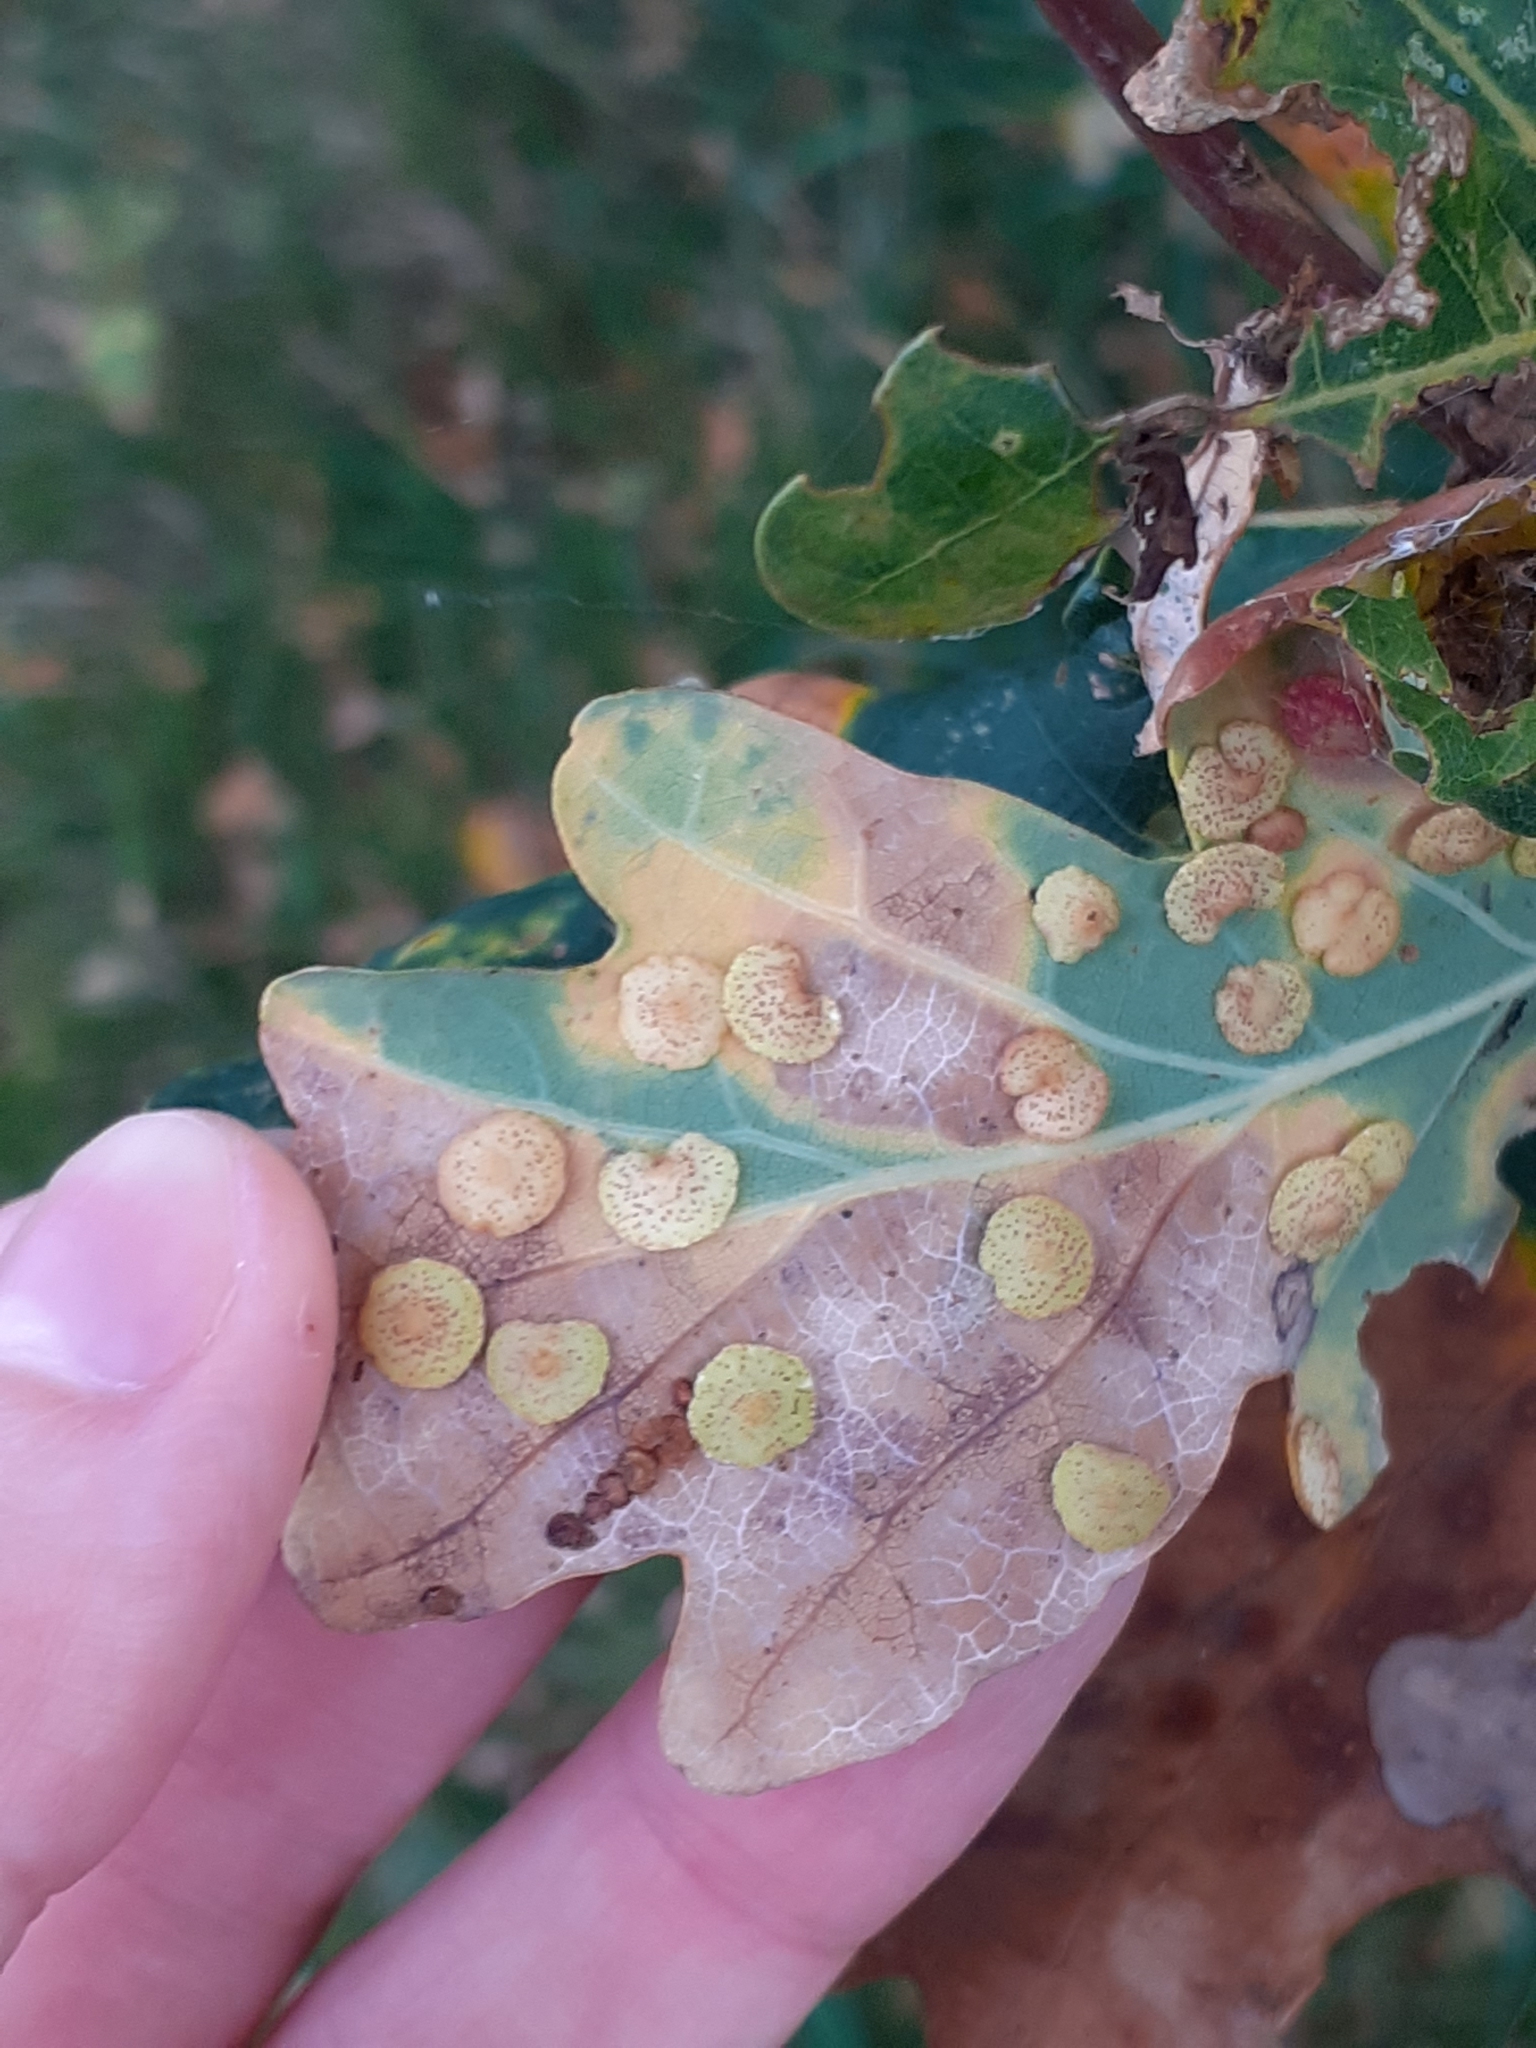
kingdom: Animalia
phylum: Arthropoda
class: Insecta
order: Hymenoptera
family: Cynipidae
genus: Neuroterus
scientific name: Neuroterus quercusbaccarum
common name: Common spangle gall
